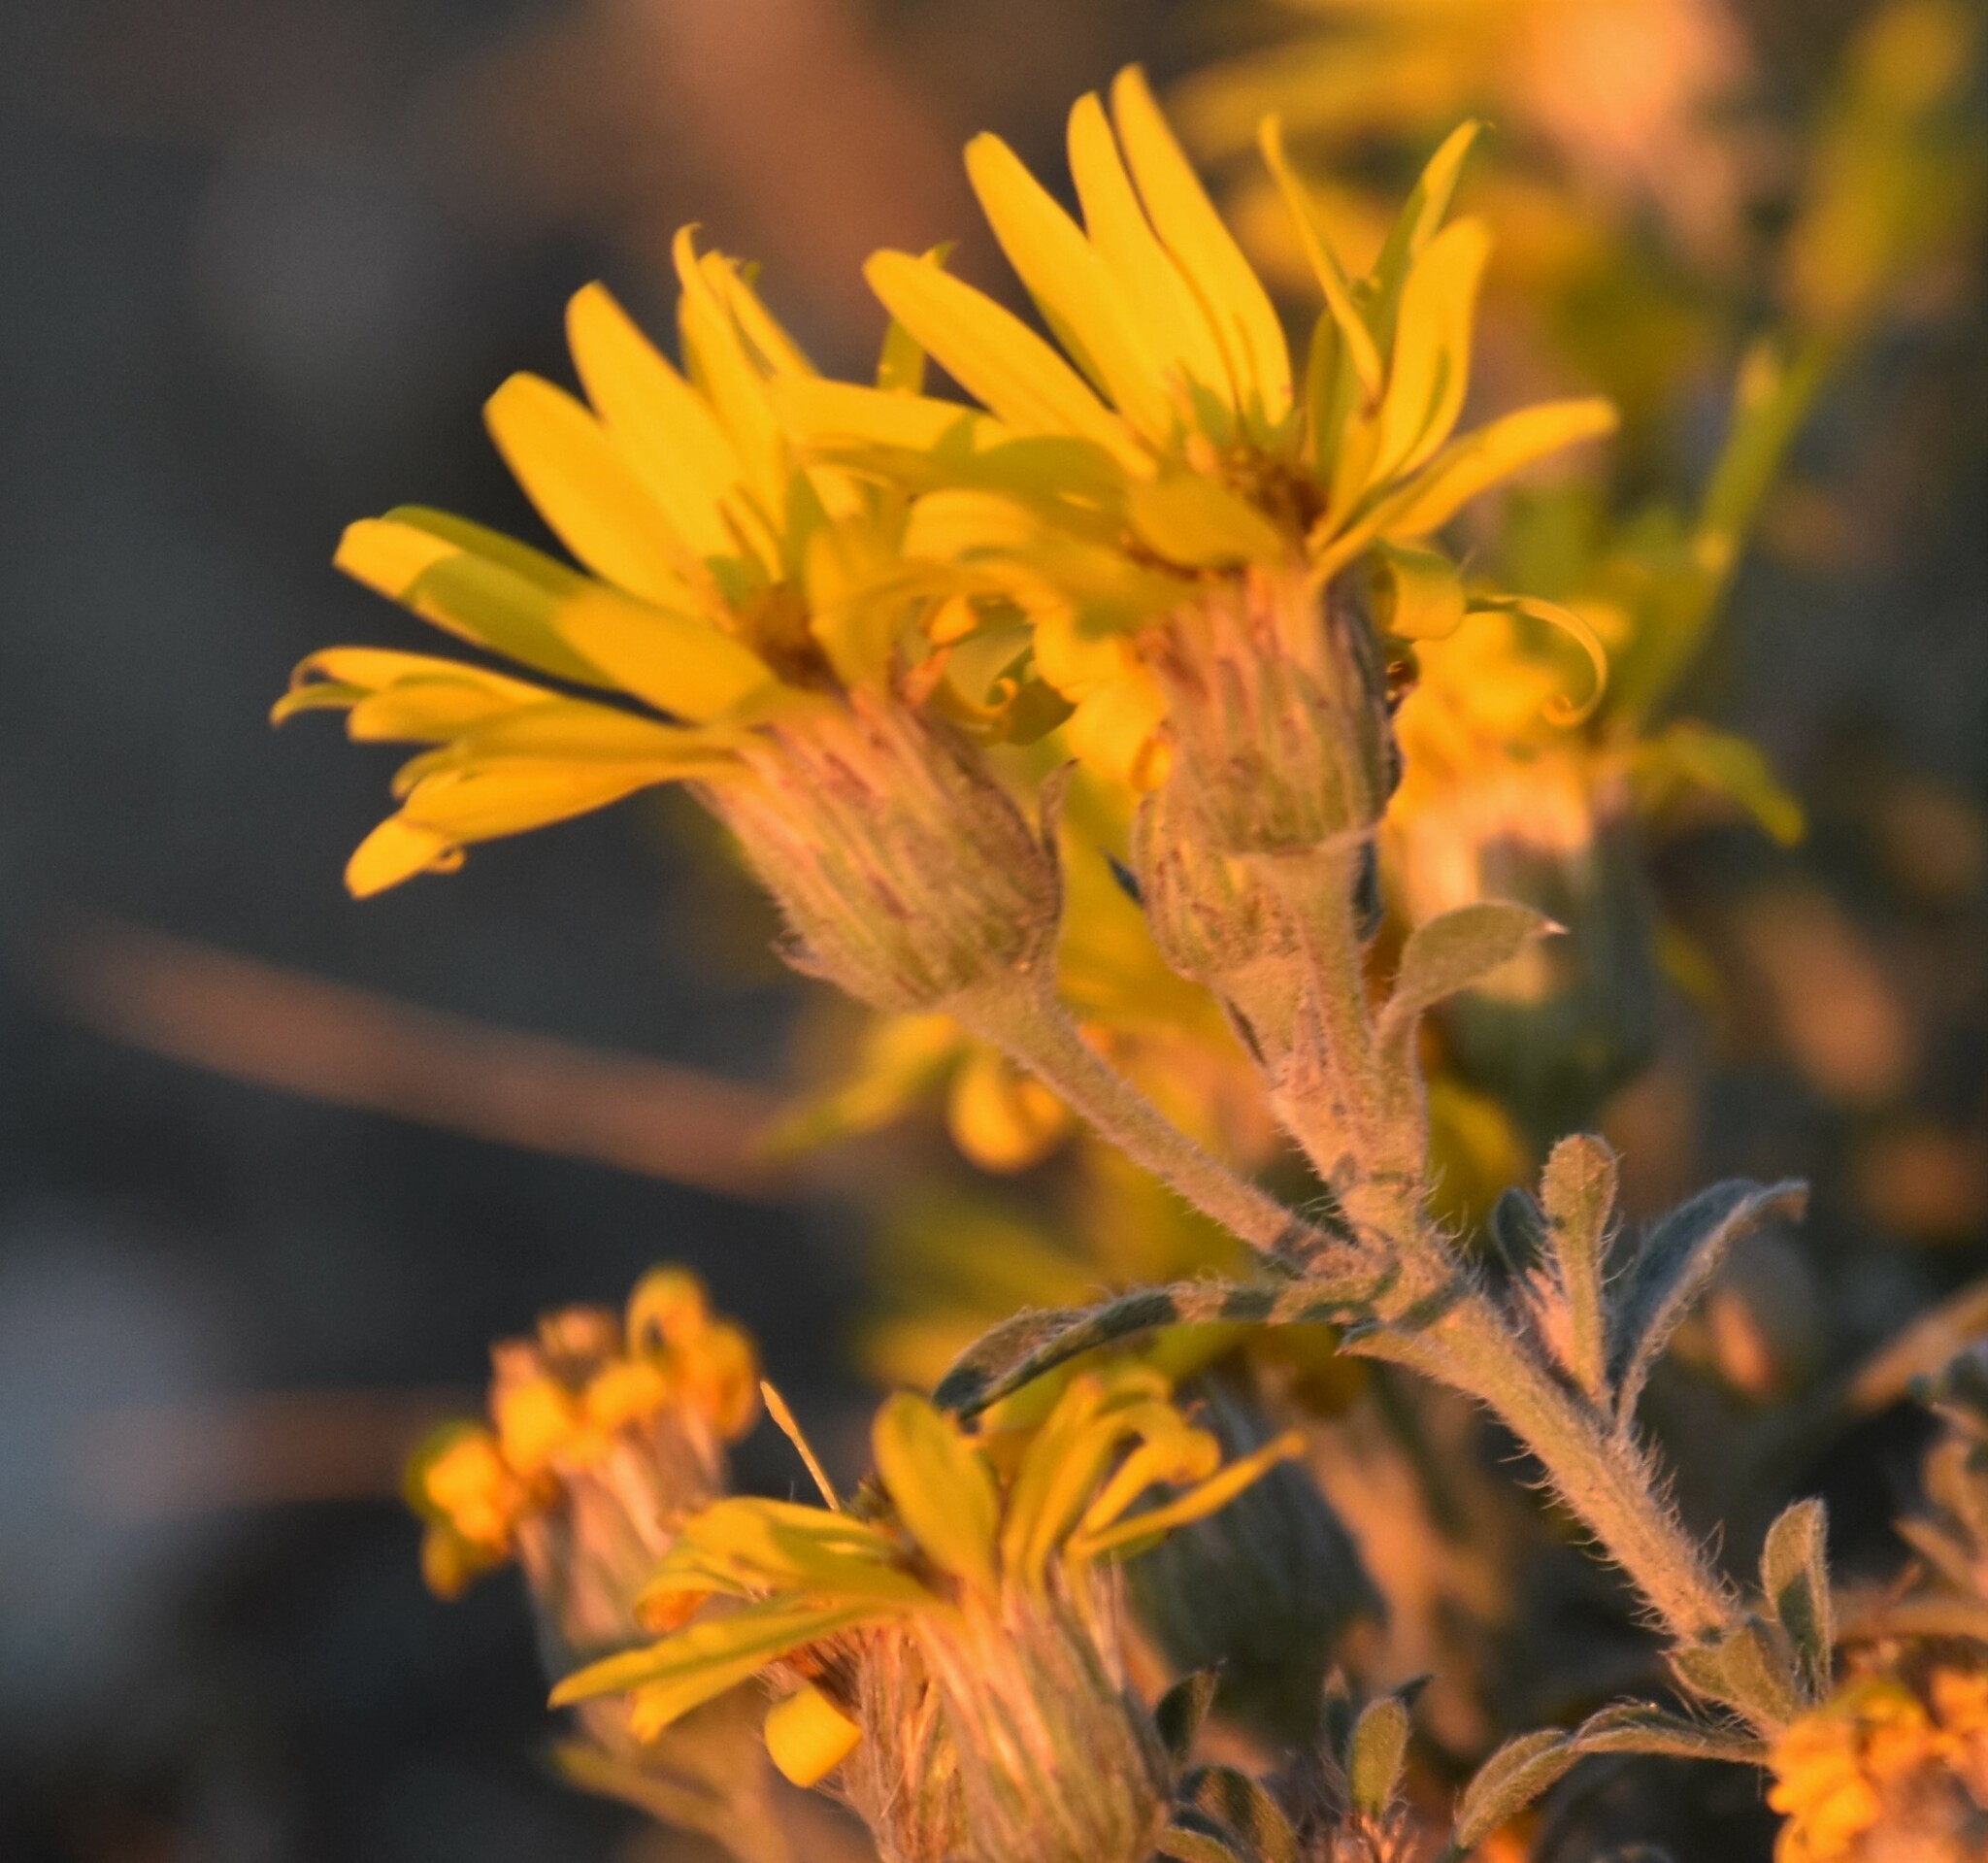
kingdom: Plantae
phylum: Tracheophyta
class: Magnoliopsida
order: Asterales
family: Asteraceae
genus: Heterotheca
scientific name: Heterotheca villosa
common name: Hairy false goldenaster
